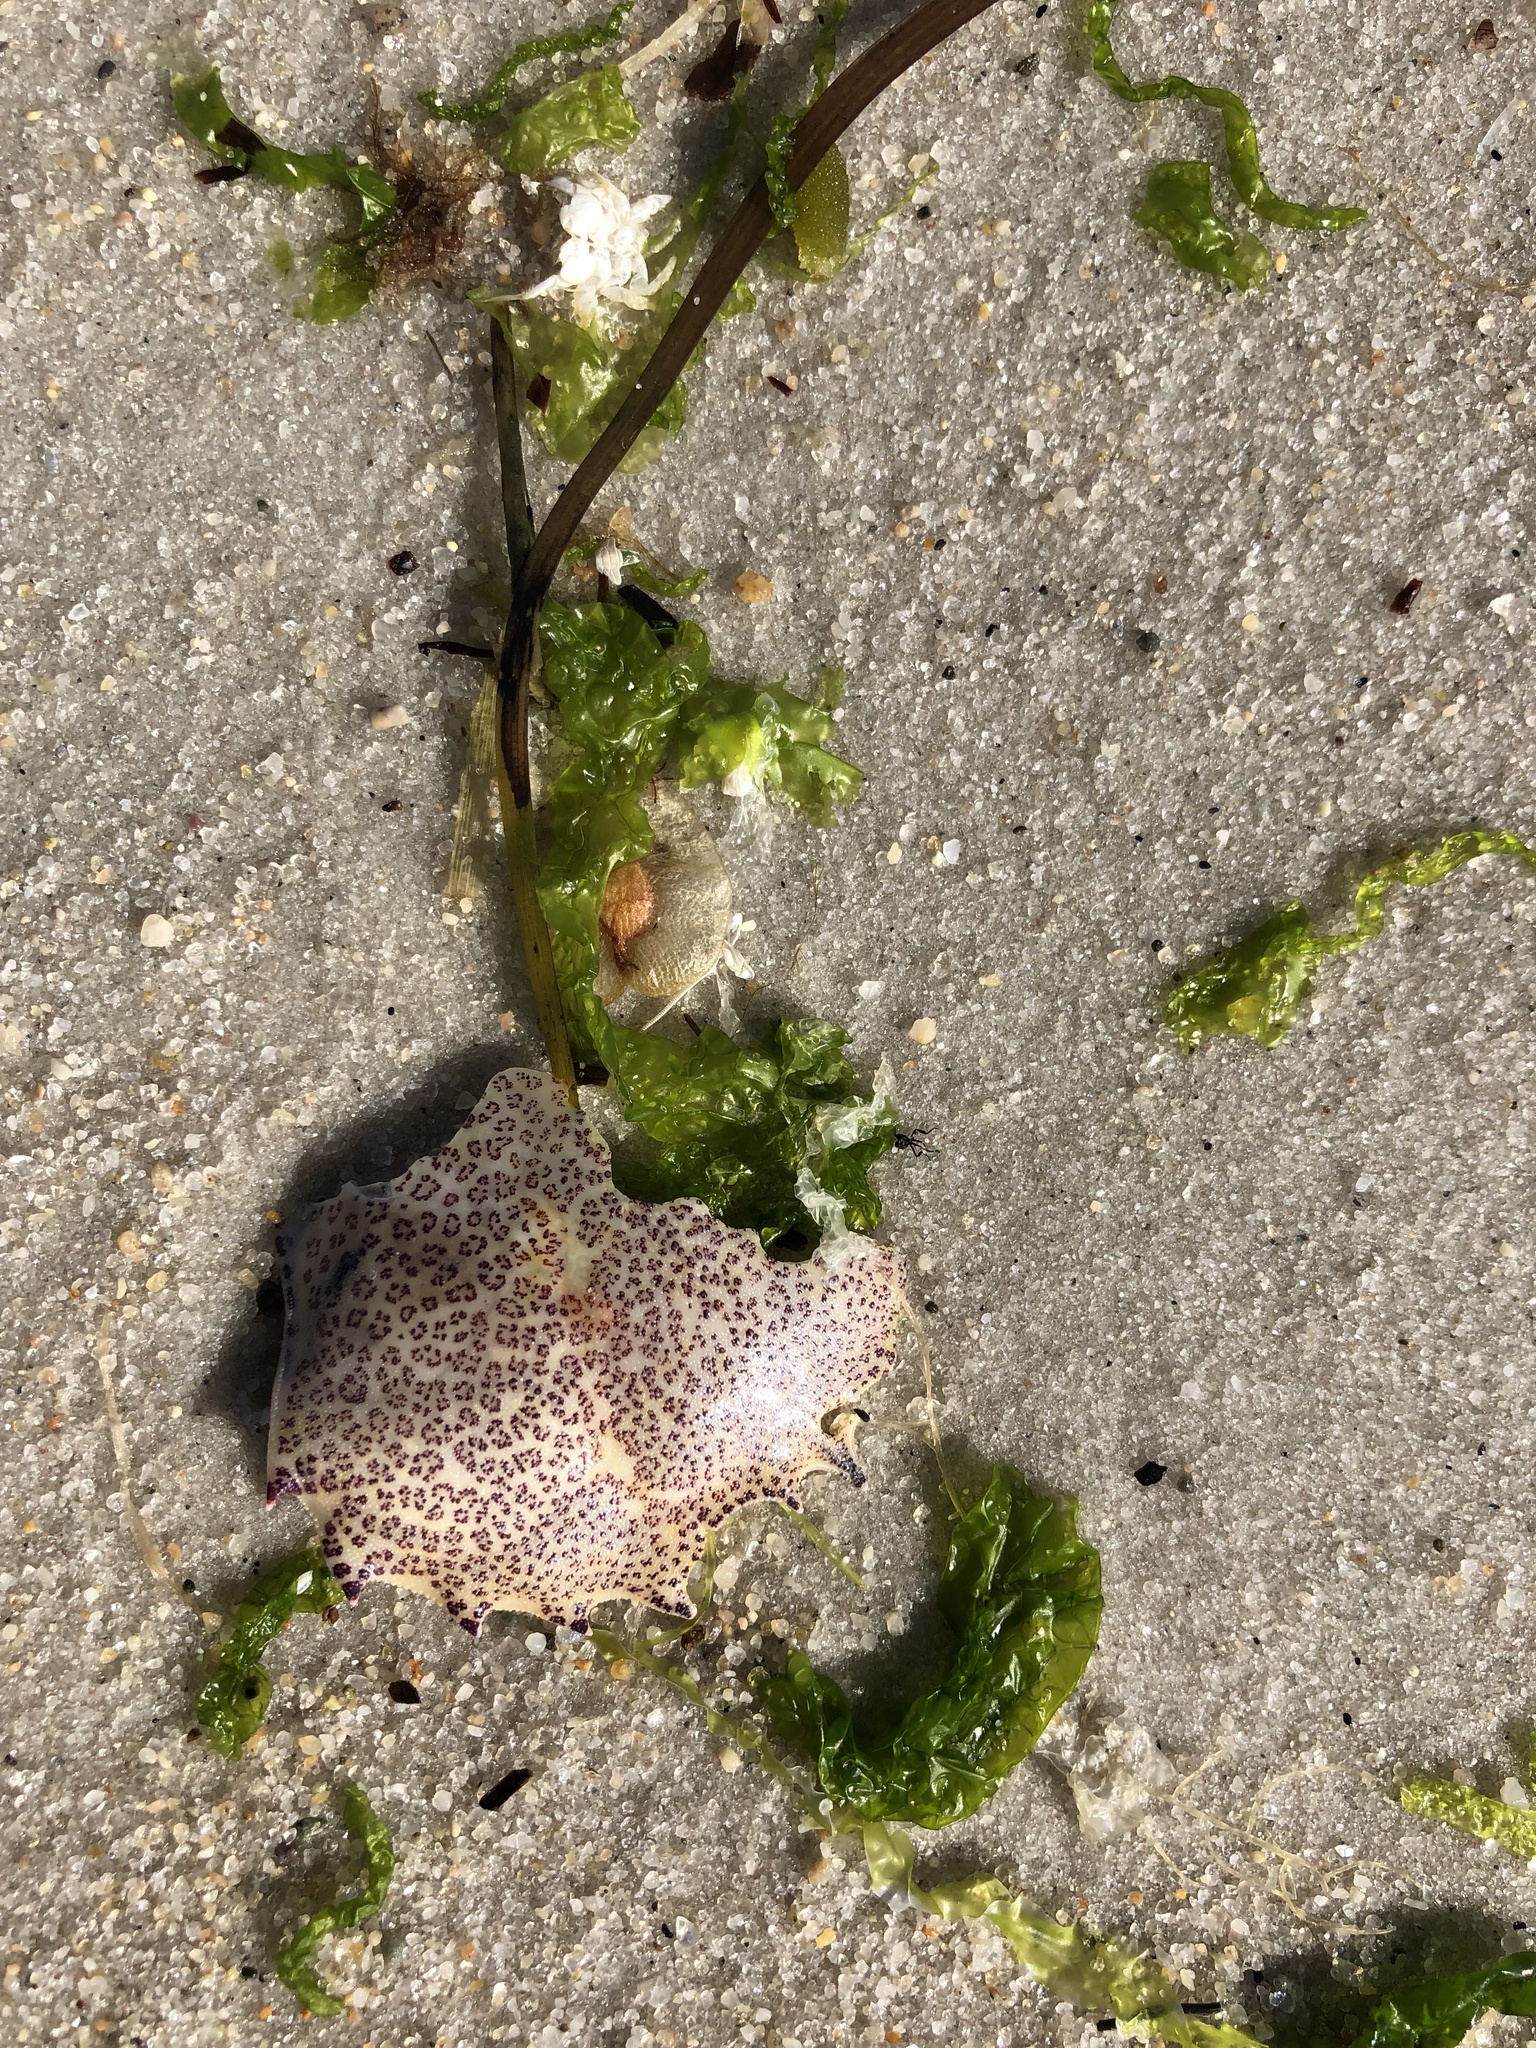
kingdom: Animalia
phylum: Arthropoda
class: Malacostraca
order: Decapoda
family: Ovalipidae
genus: Ovalipes
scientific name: Ovalipes ocellatus
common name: Lady crab
